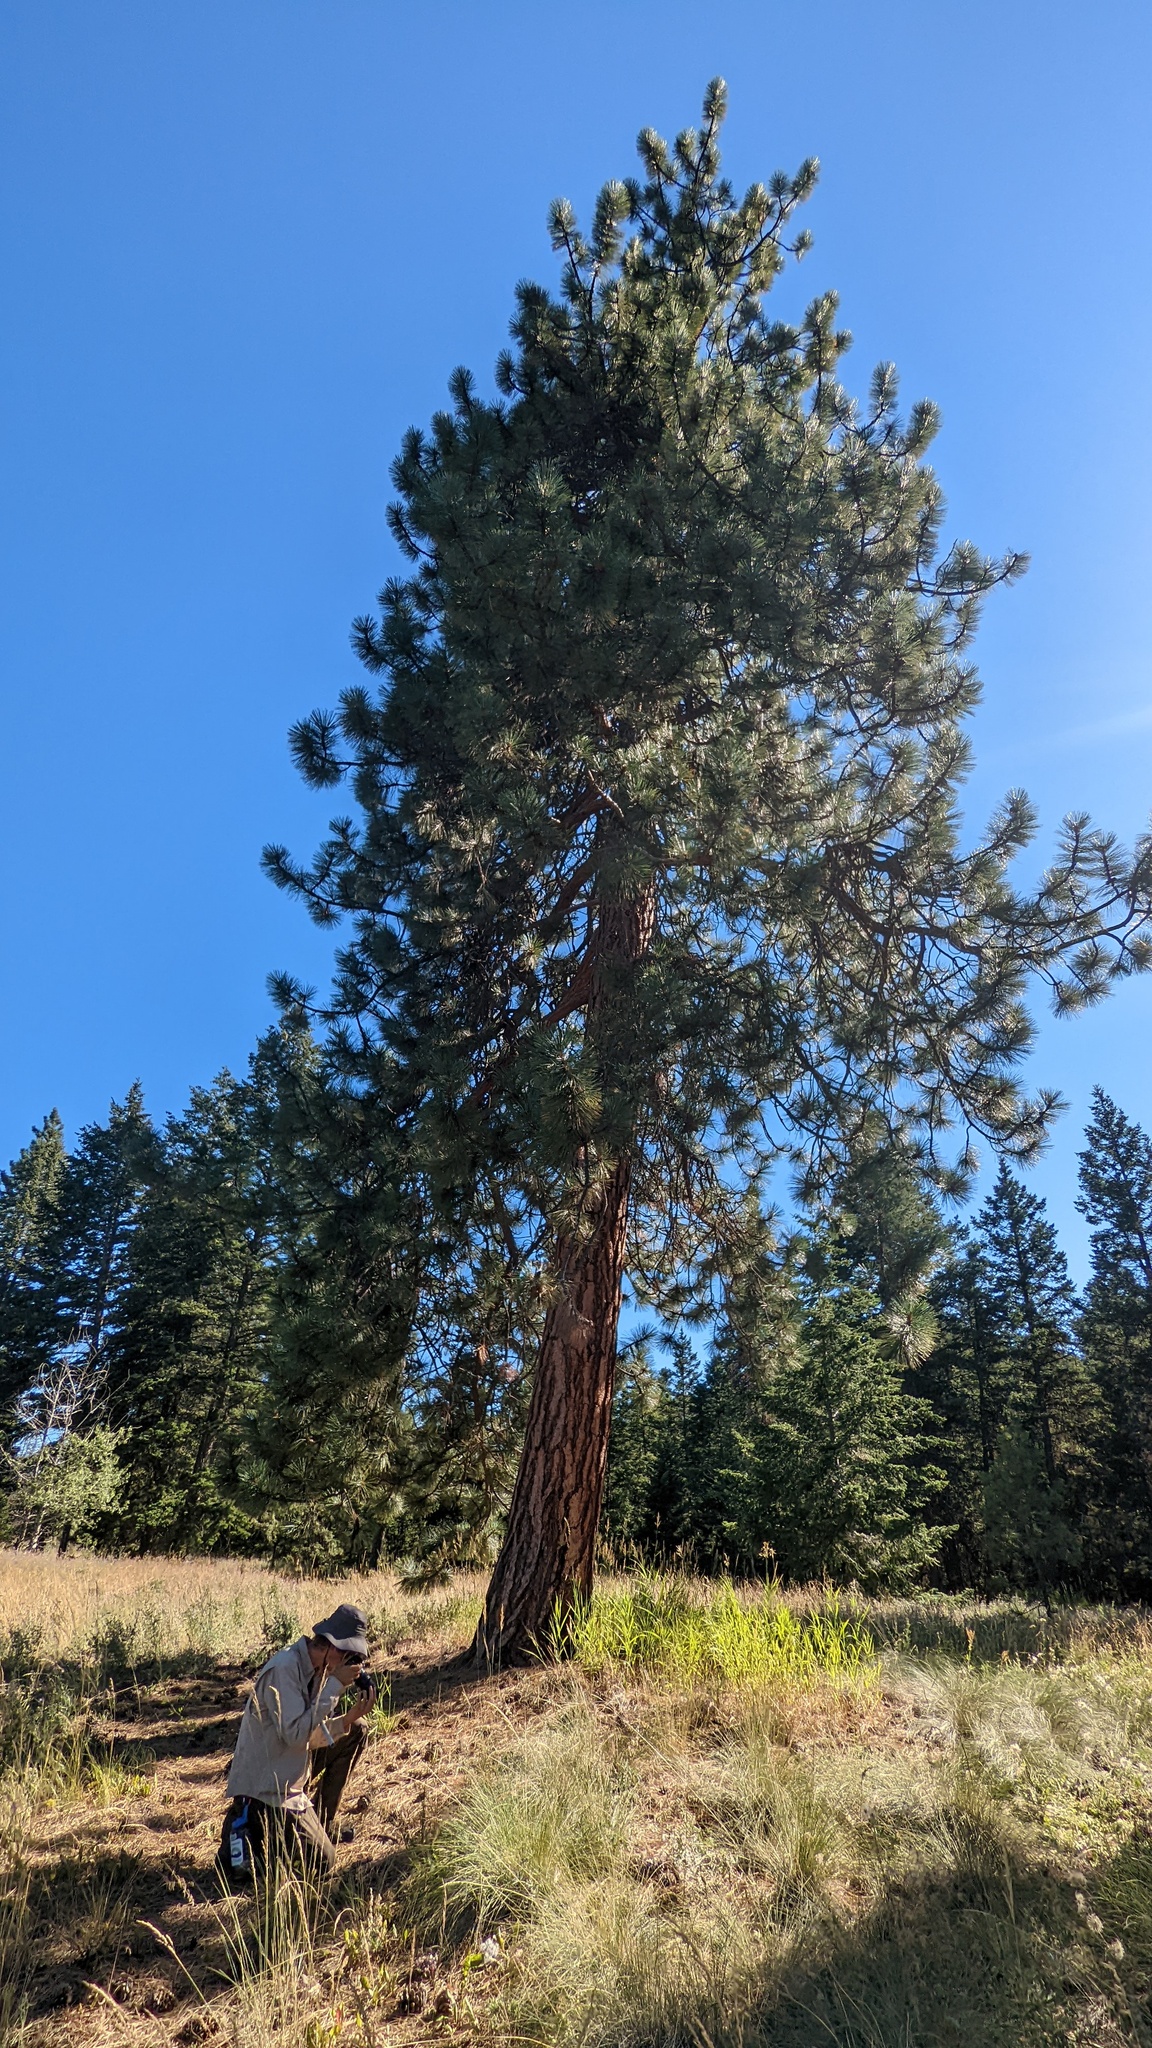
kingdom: Plantae
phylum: Tracheophyta
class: Pinopsida
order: Pinales
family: Pinaceae
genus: Pinus
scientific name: Pinus ponderosa
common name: Western yellow-pine
